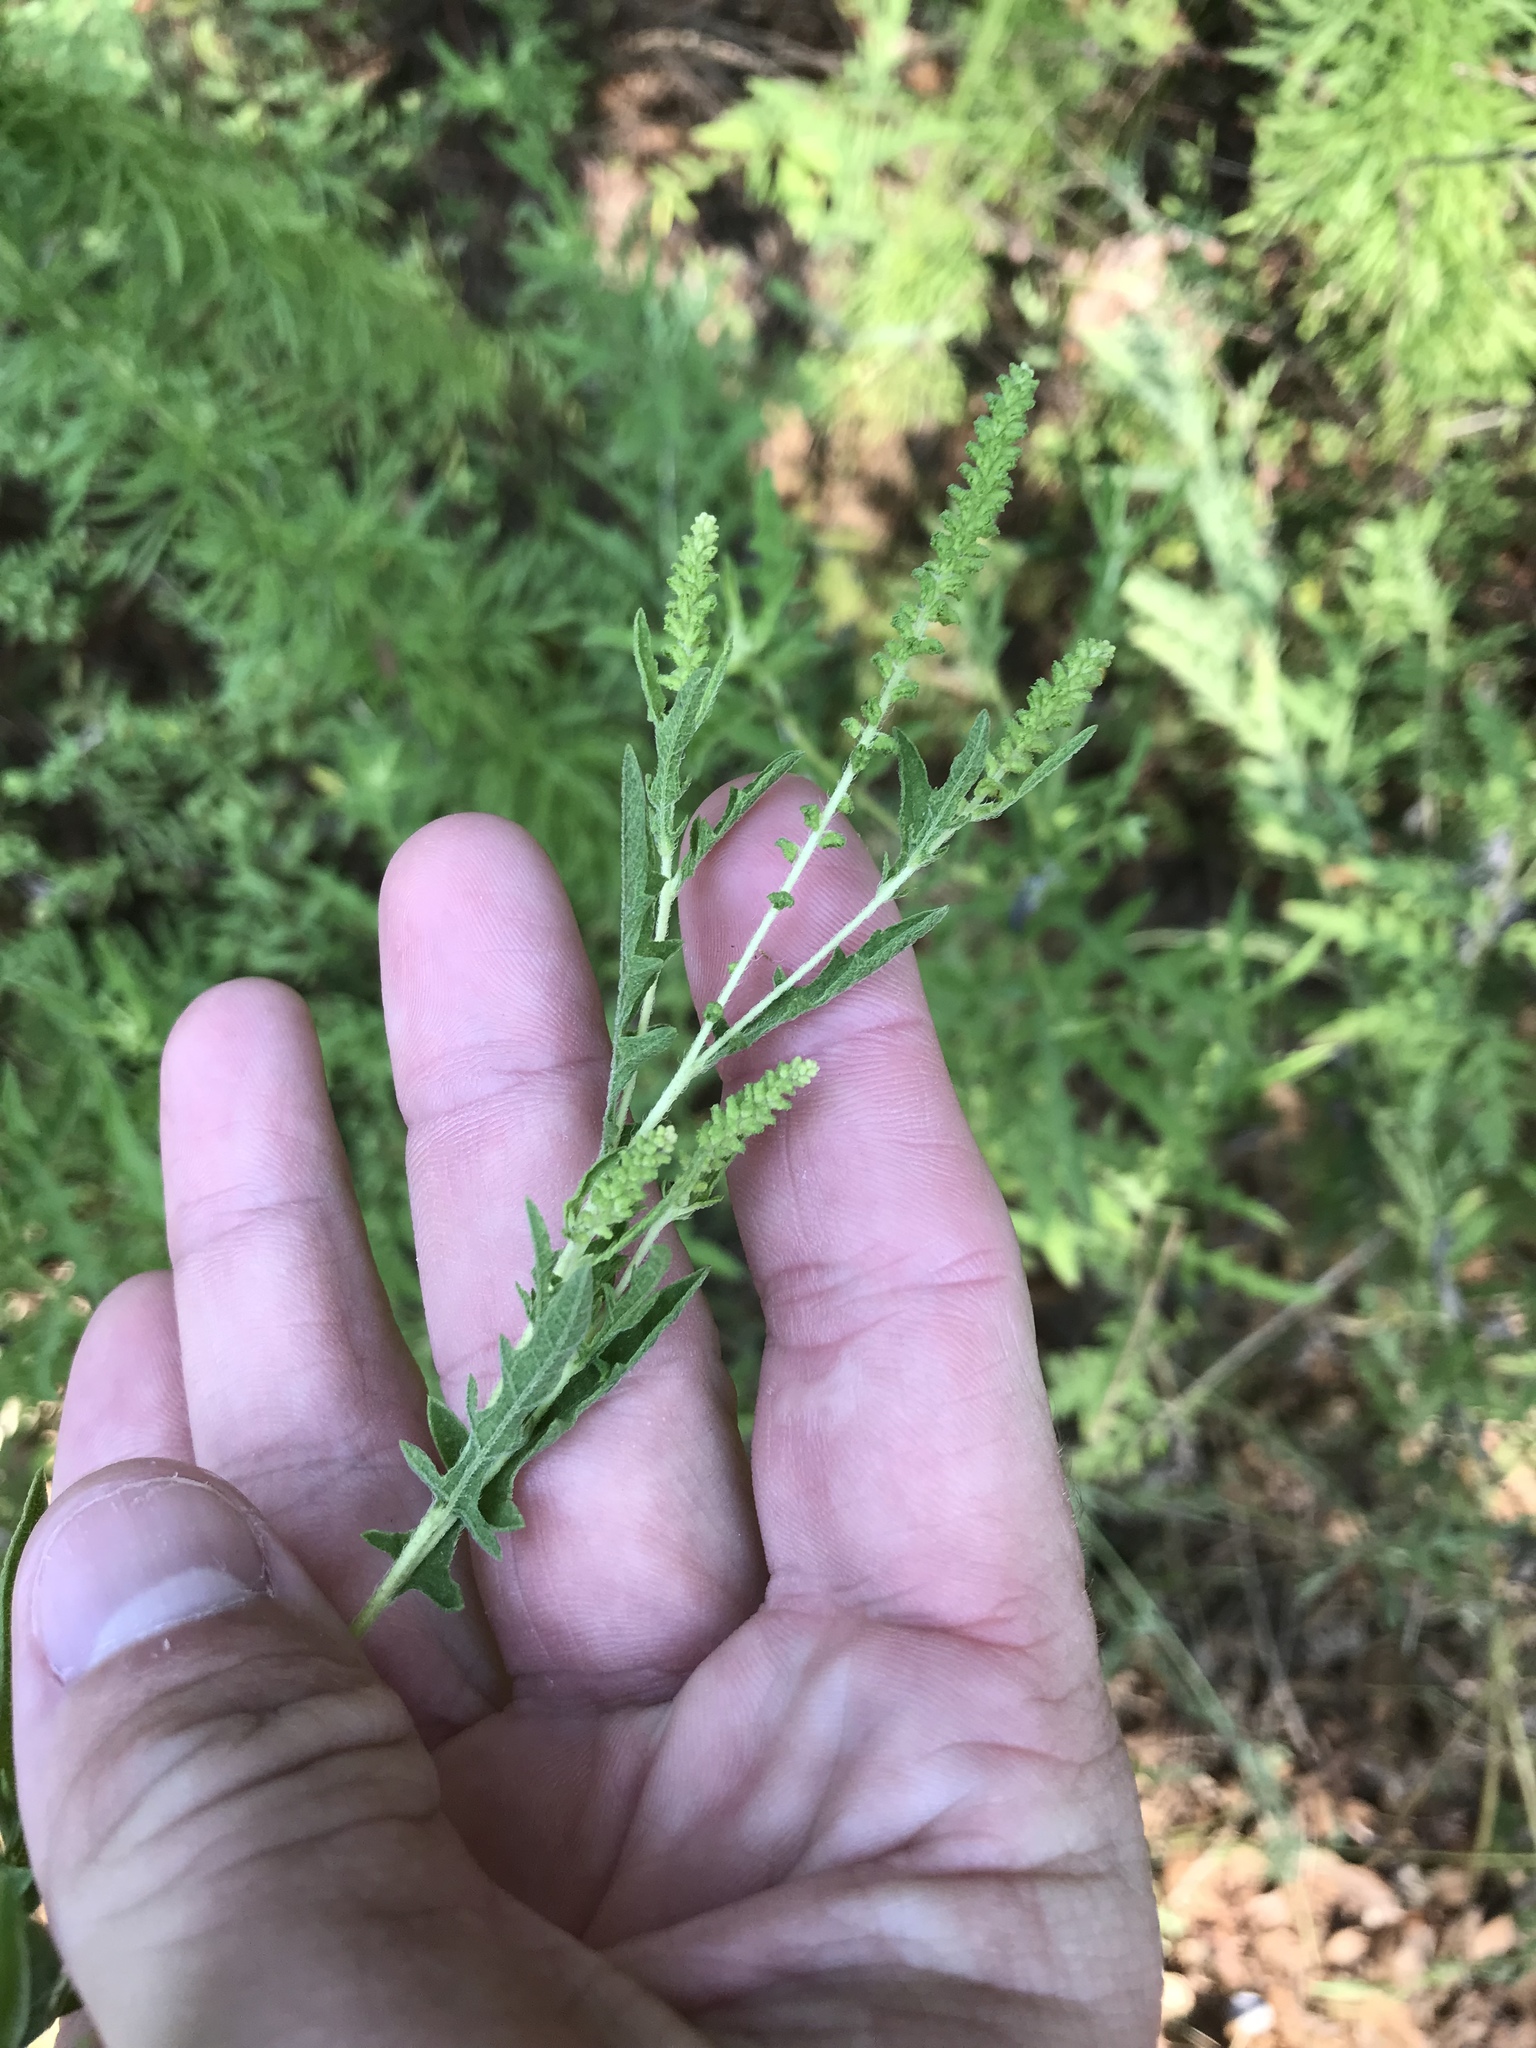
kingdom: Plantae
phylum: Tracheophyta
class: Magnoliopsida
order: Asterales
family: Asteraceae
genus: Ambrosia
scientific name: Ambrosia psilostachya
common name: Perennial ragweed
